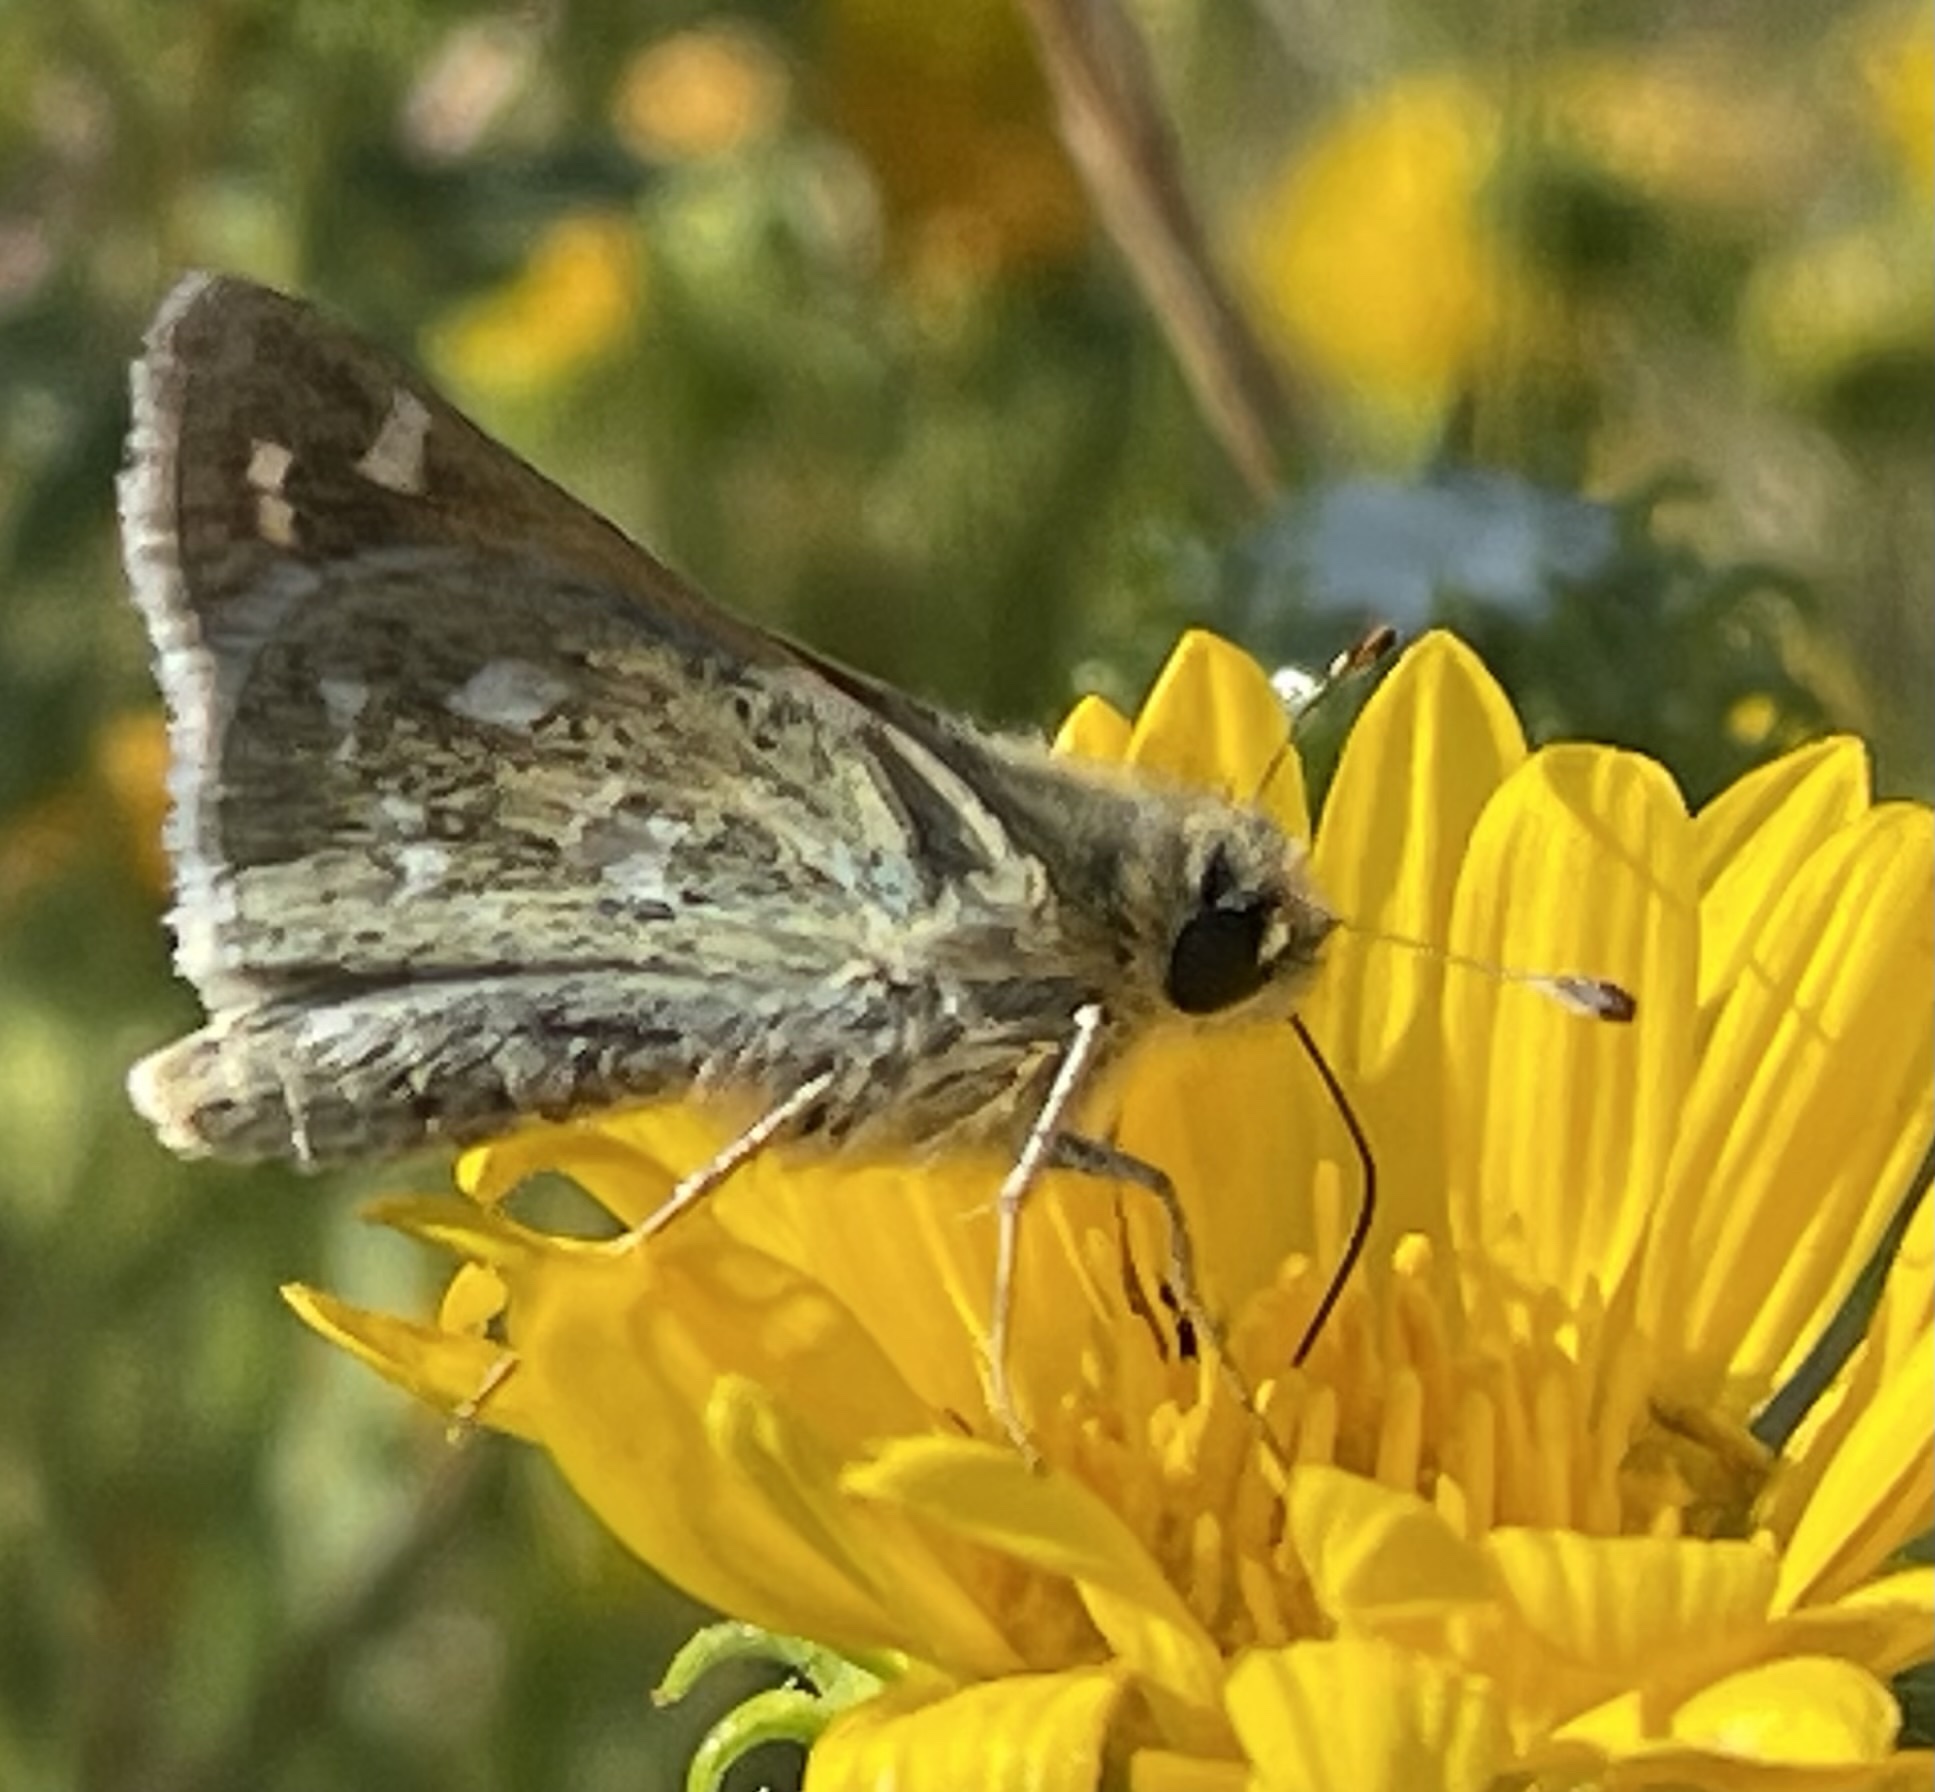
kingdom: Animalia
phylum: Arthropoda
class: Insecta
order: Lepidoptera
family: Hesperiidae
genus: Hesperia
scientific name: Hesperia comma
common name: Common branded skipper
